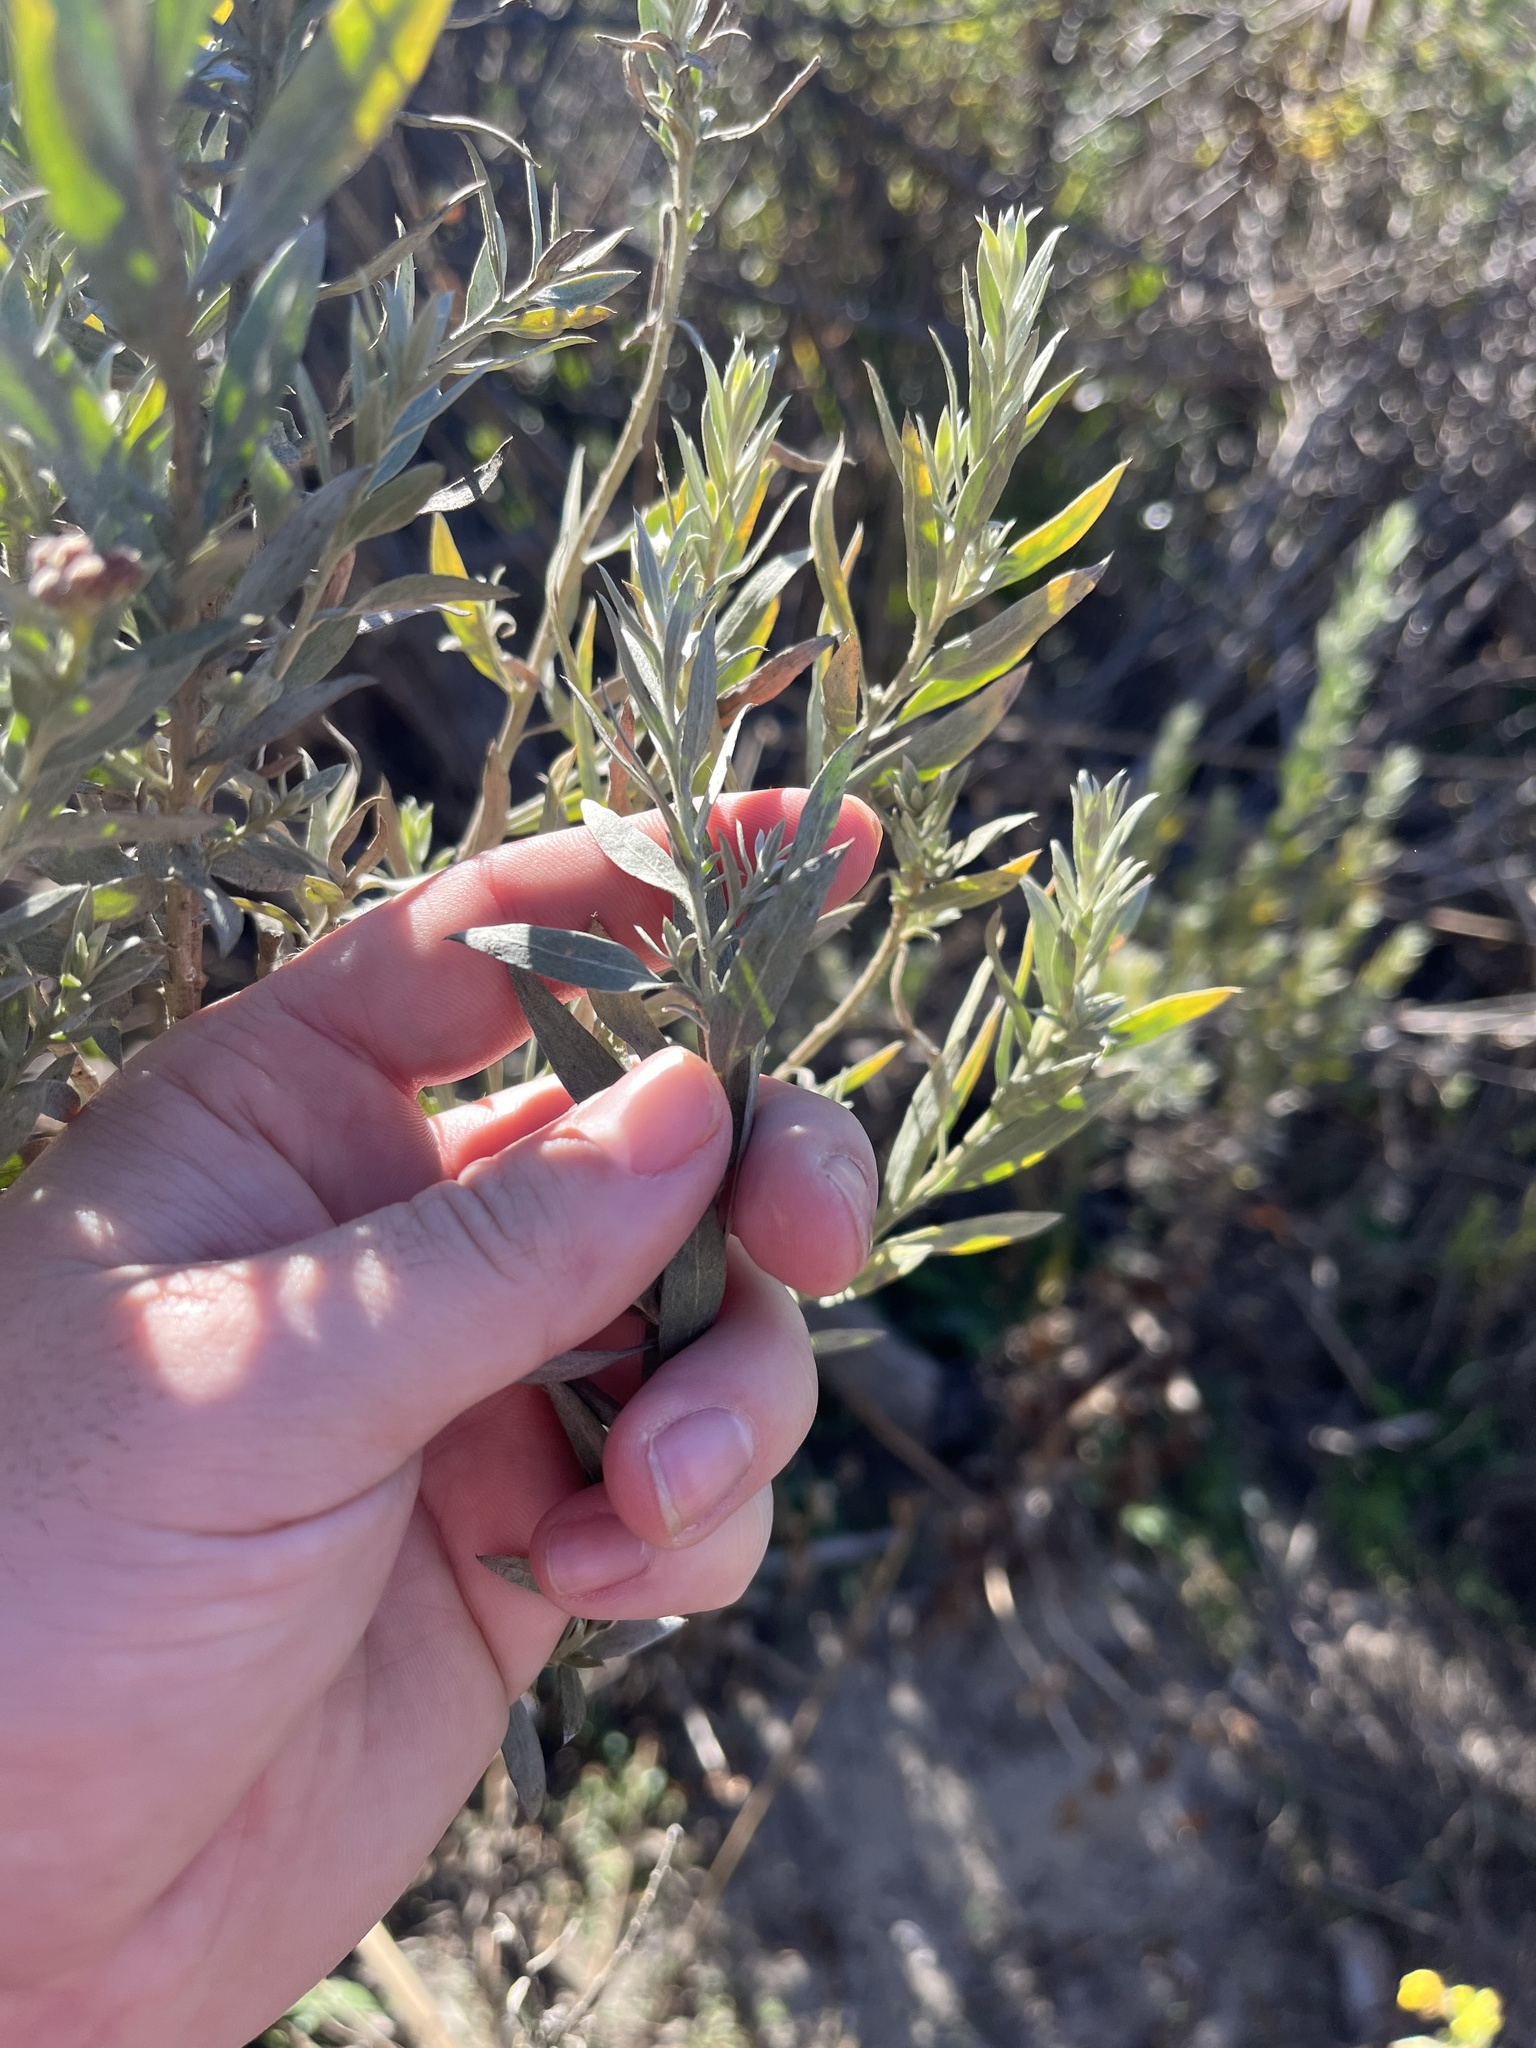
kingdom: Plantae
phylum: Tracheophyta
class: Magnoliopsida
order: Asterales
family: Asteraceae
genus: Pluchea
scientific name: Pluchea sericea
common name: Arrow-weed
